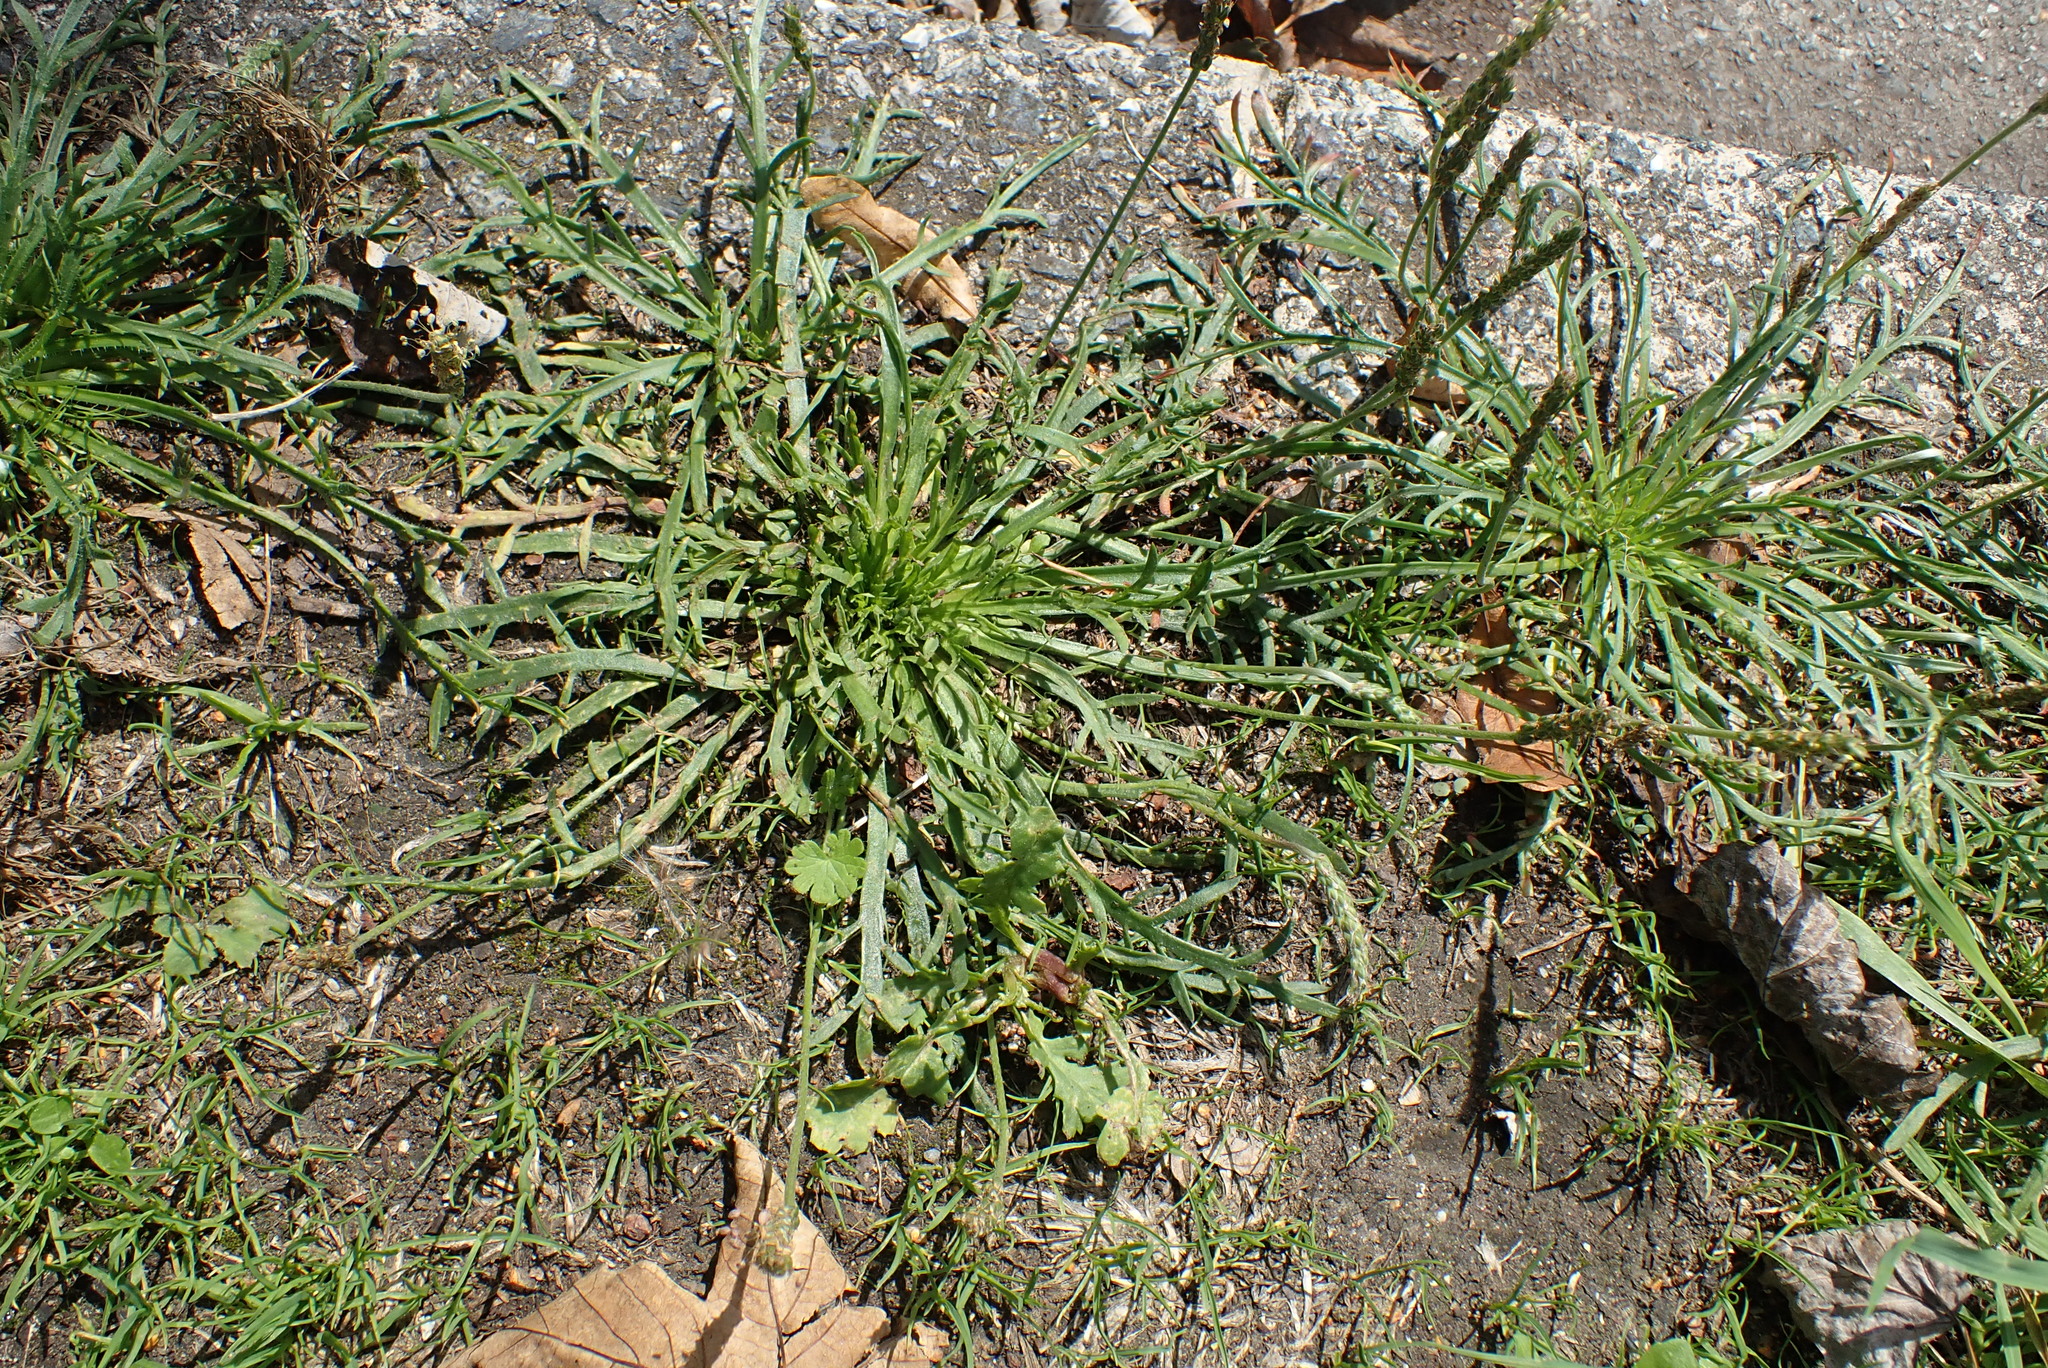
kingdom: Plantae
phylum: Tracheophyta
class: Magnoliopsida
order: Lamiales
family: Plantaginaceae
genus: Plantago
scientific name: Plantago coronopus
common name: Buck's-horn plantain
